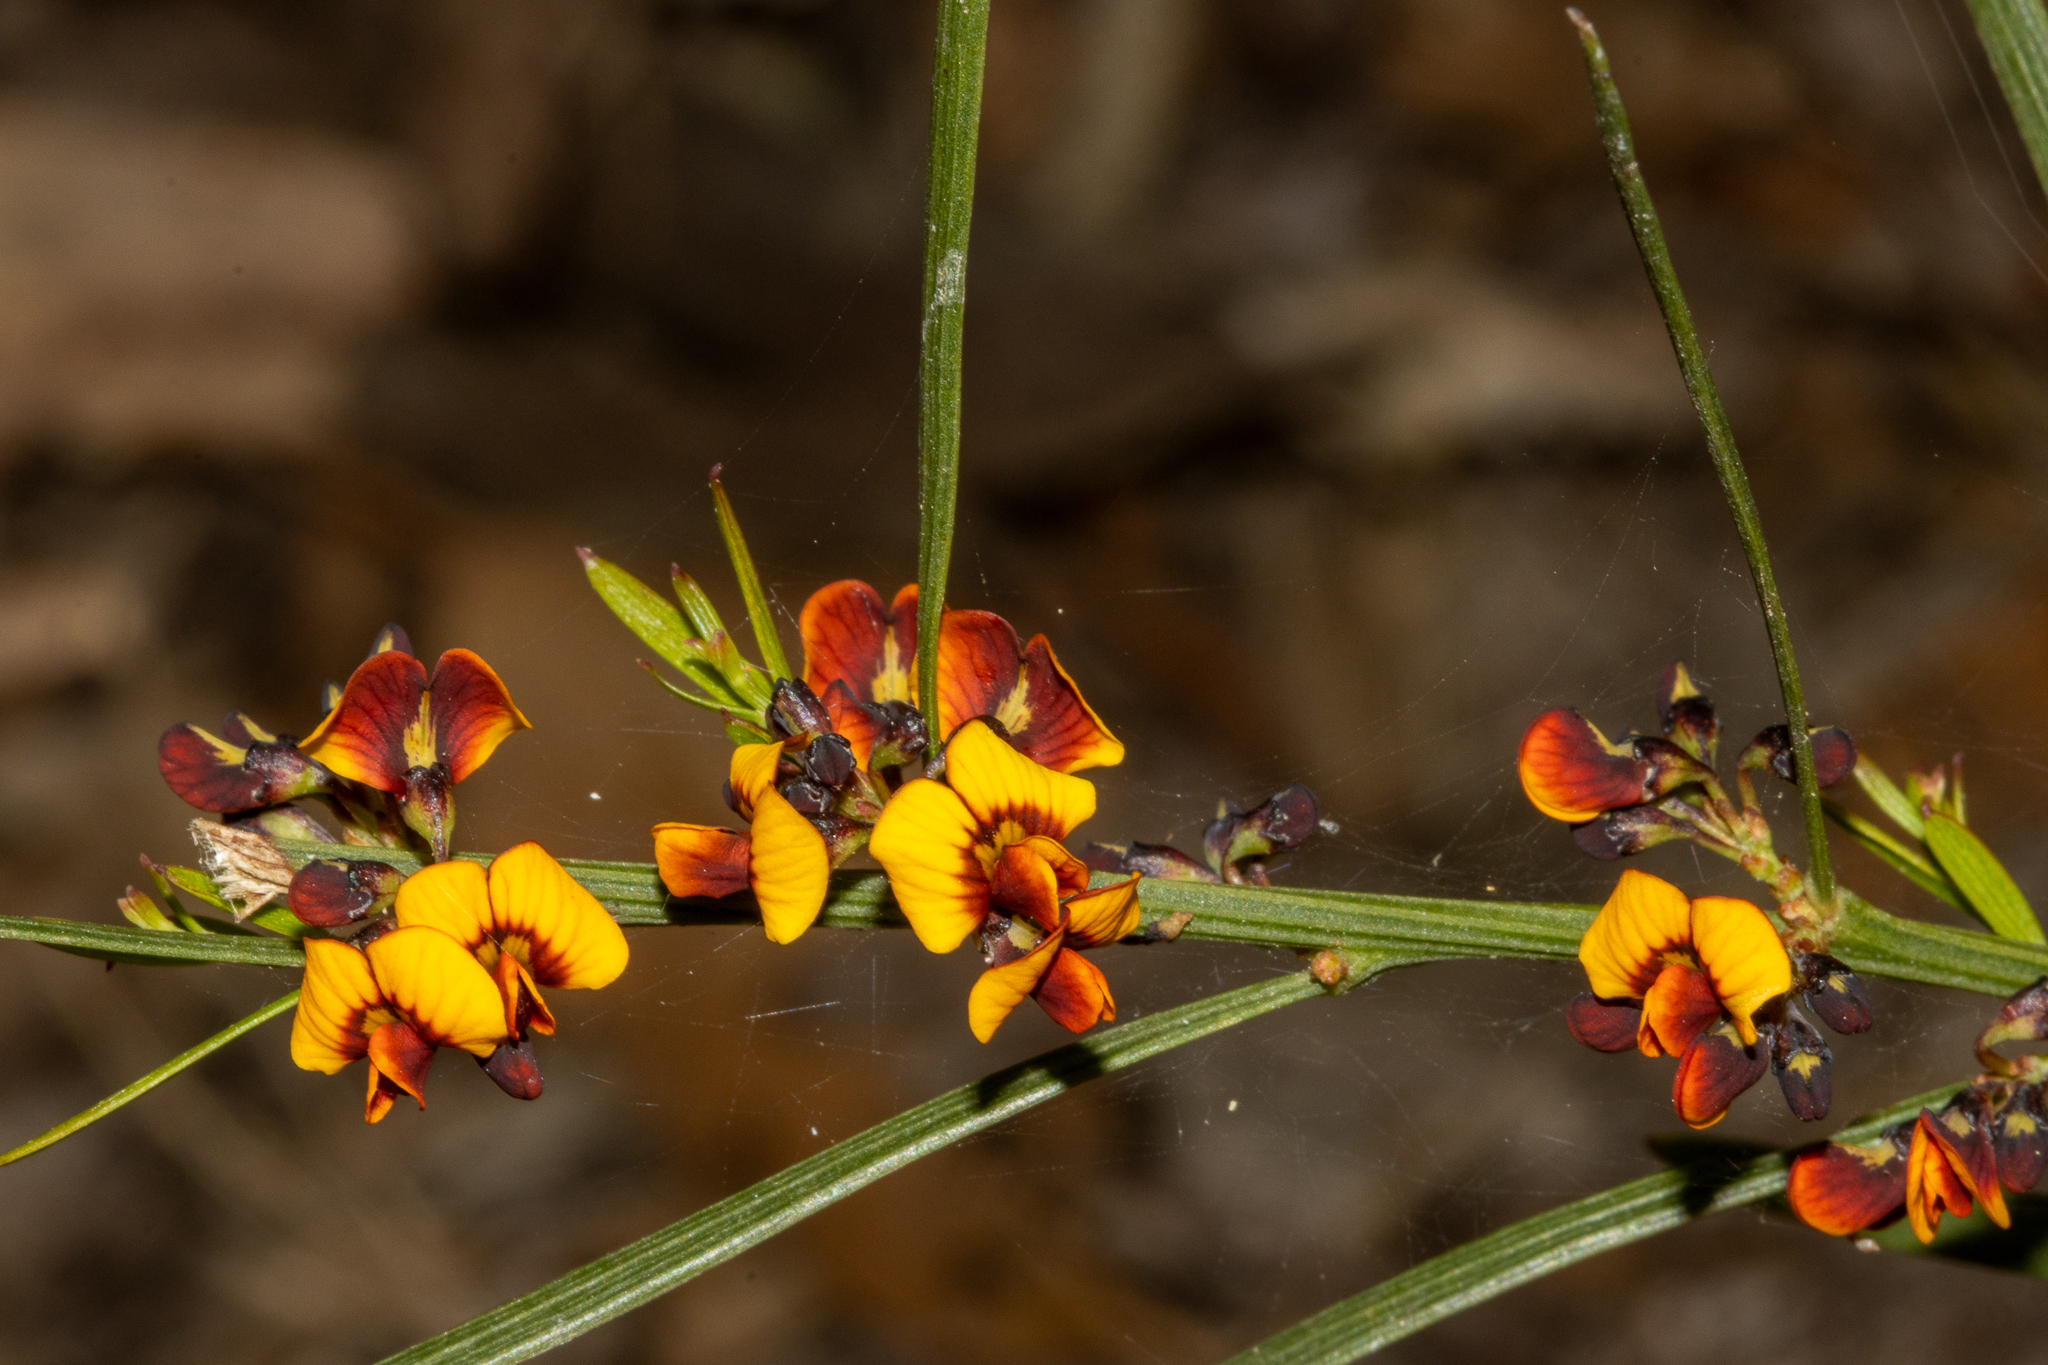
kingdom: Plantae
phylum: Tracheophyta
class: Magnoliopsida
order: Fabales
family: Fabaceae
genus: Daviesia
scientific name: Daviesia leptophylla
